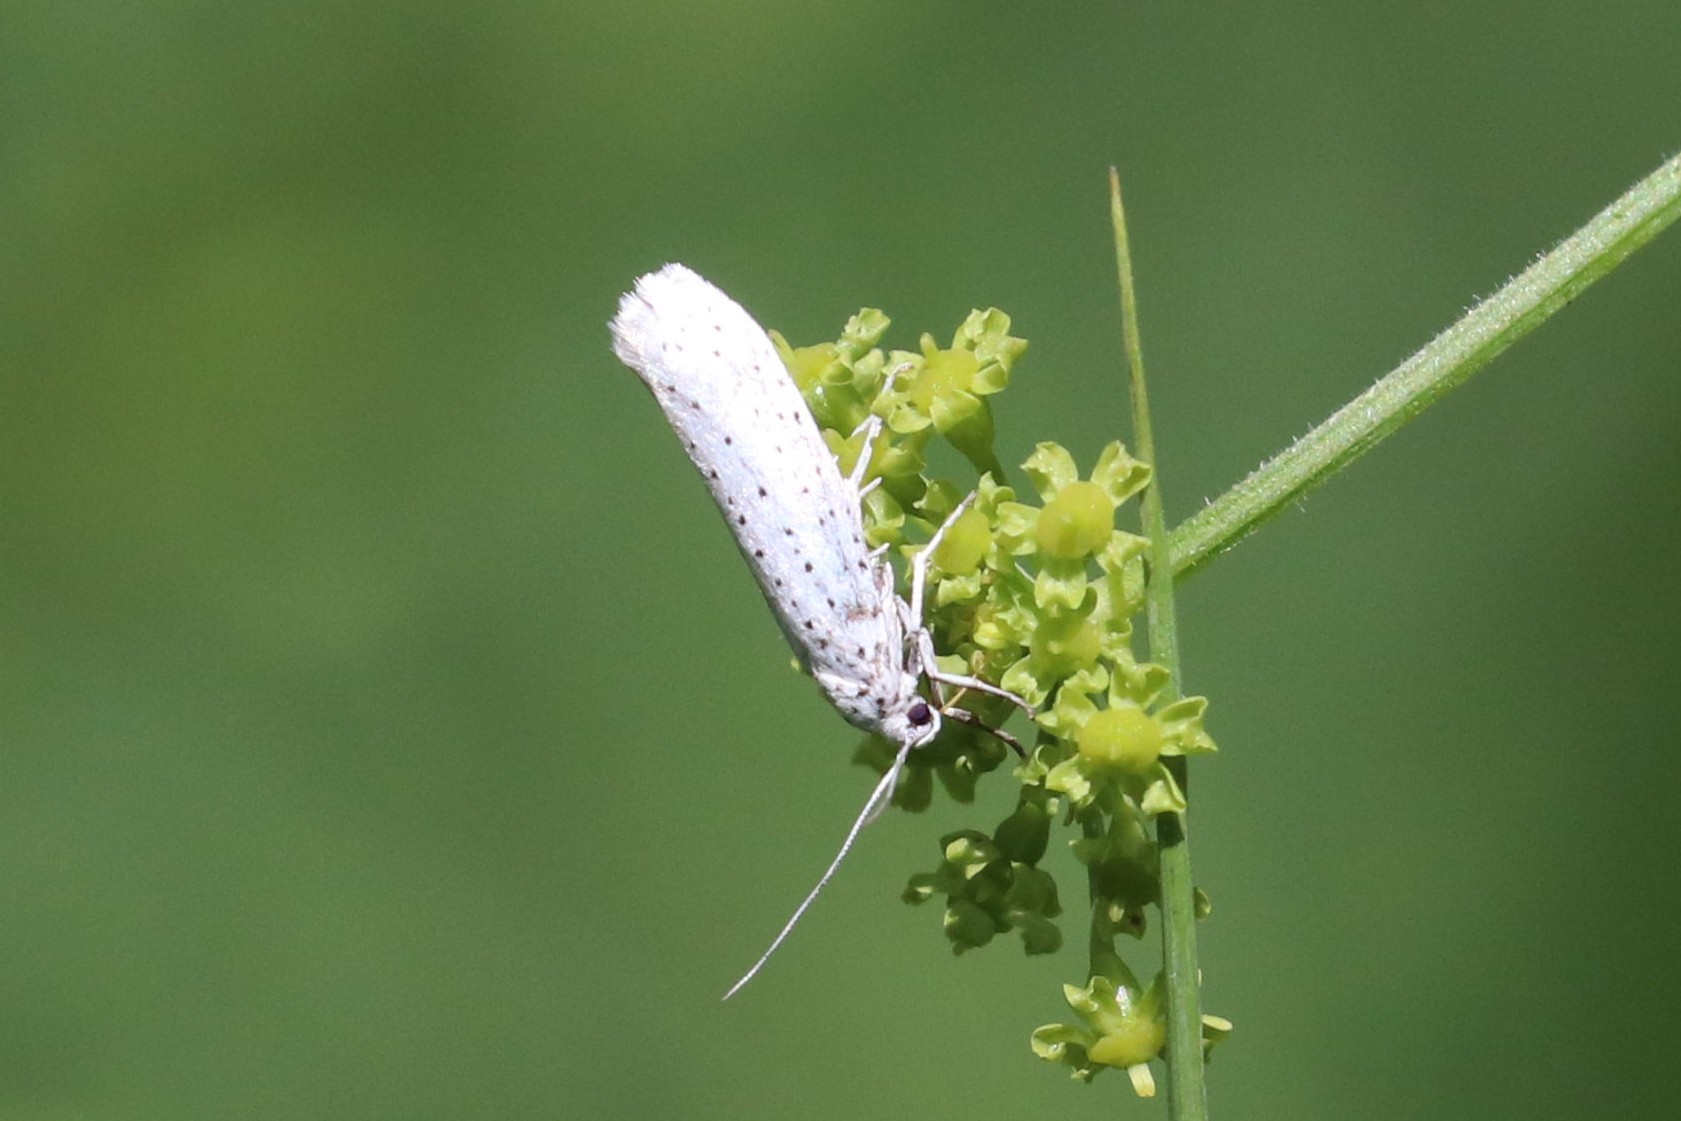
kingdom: Animalia
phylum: Arthropoda
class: Insecta
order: Lepidoptera
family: Yponomeutidae
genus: Yponomeuta
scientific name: Yponomeuta evonymella
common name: Bird-cherry ermine
